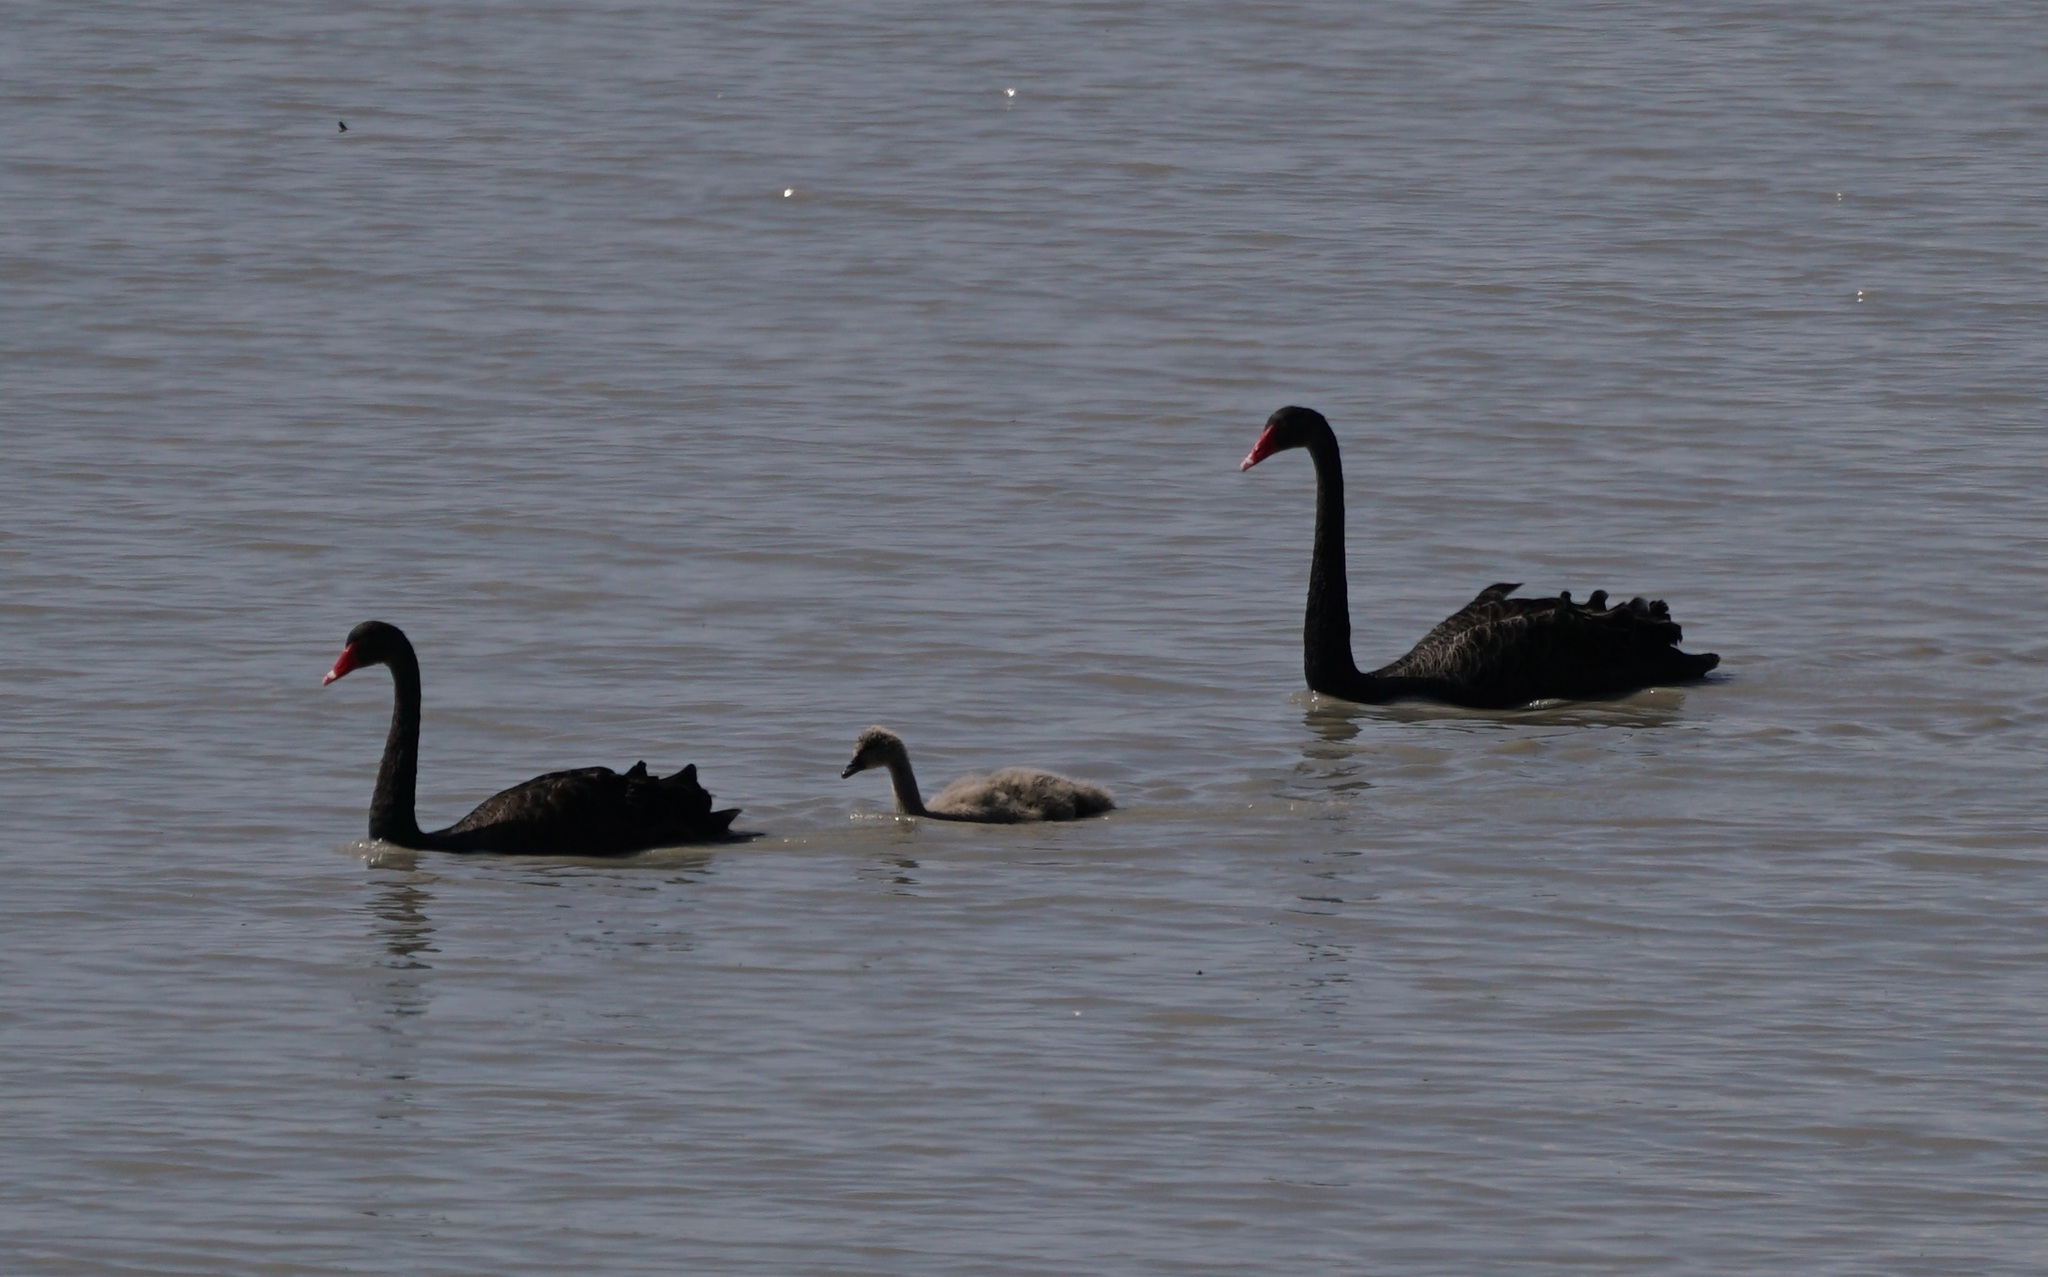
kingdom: Animalia
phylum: Chordata
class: Aves
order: Anseriformes
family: Anatidae
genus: Cygnus
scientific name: Cygnus atratus
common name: Black swan
